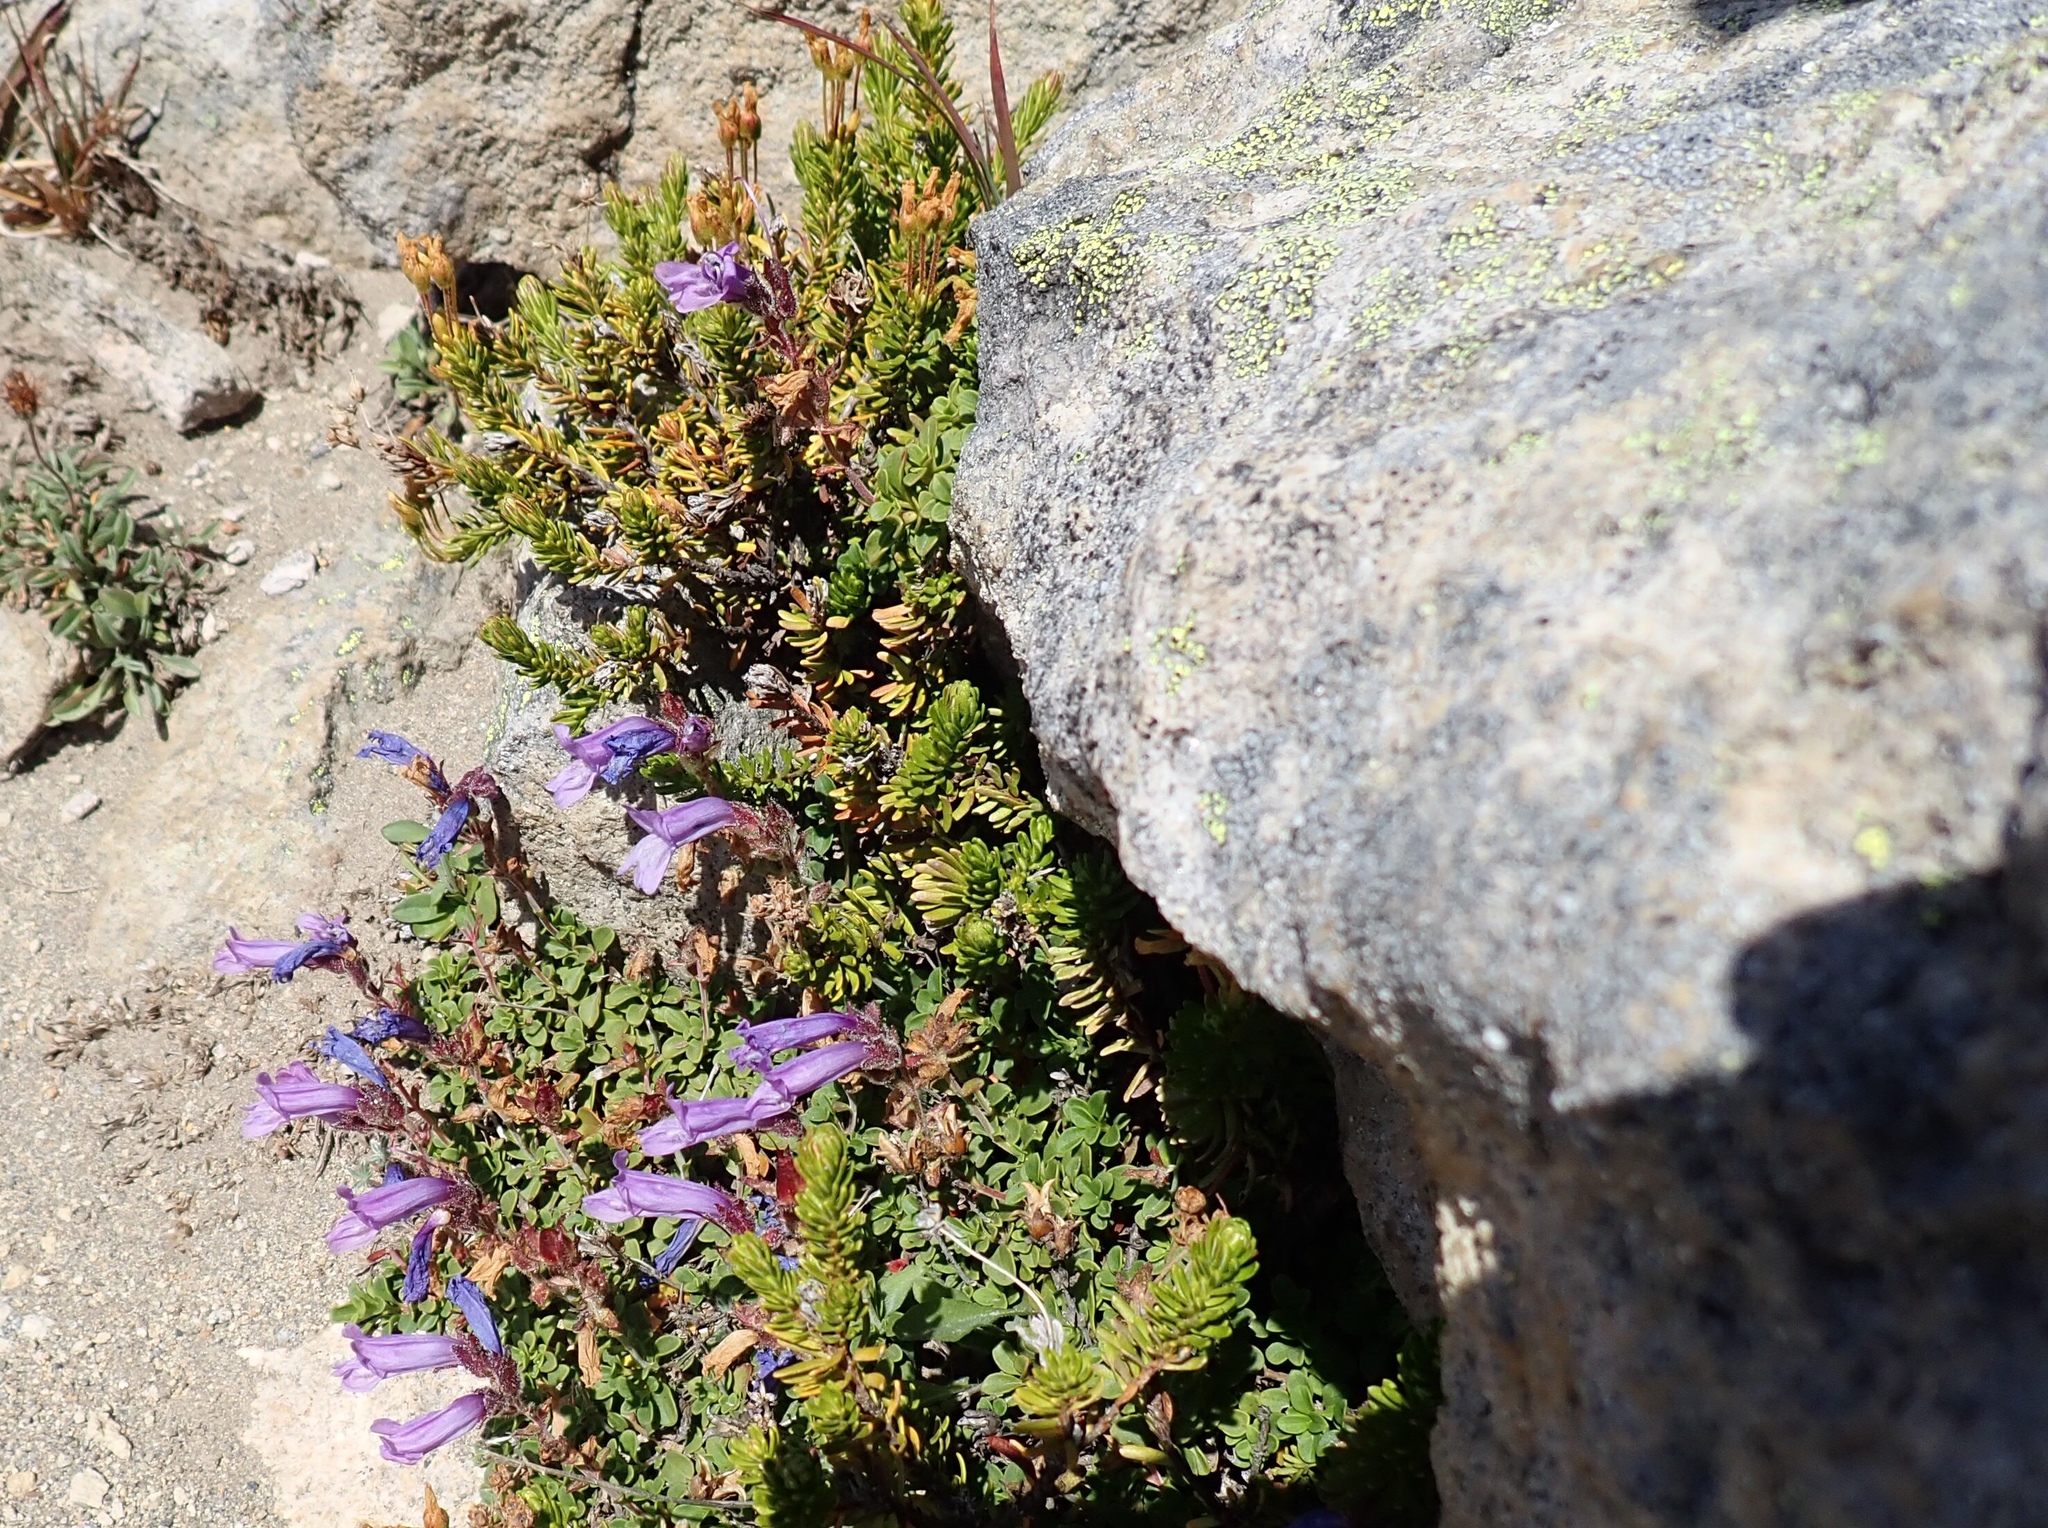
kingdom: Plantae
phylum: Tracheophyta
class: Magnoliopsida
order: Lamiales
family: Plantaginaceae
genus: Penstemon
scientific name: Penstemon davidsonii
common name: Davidson's penstemon
